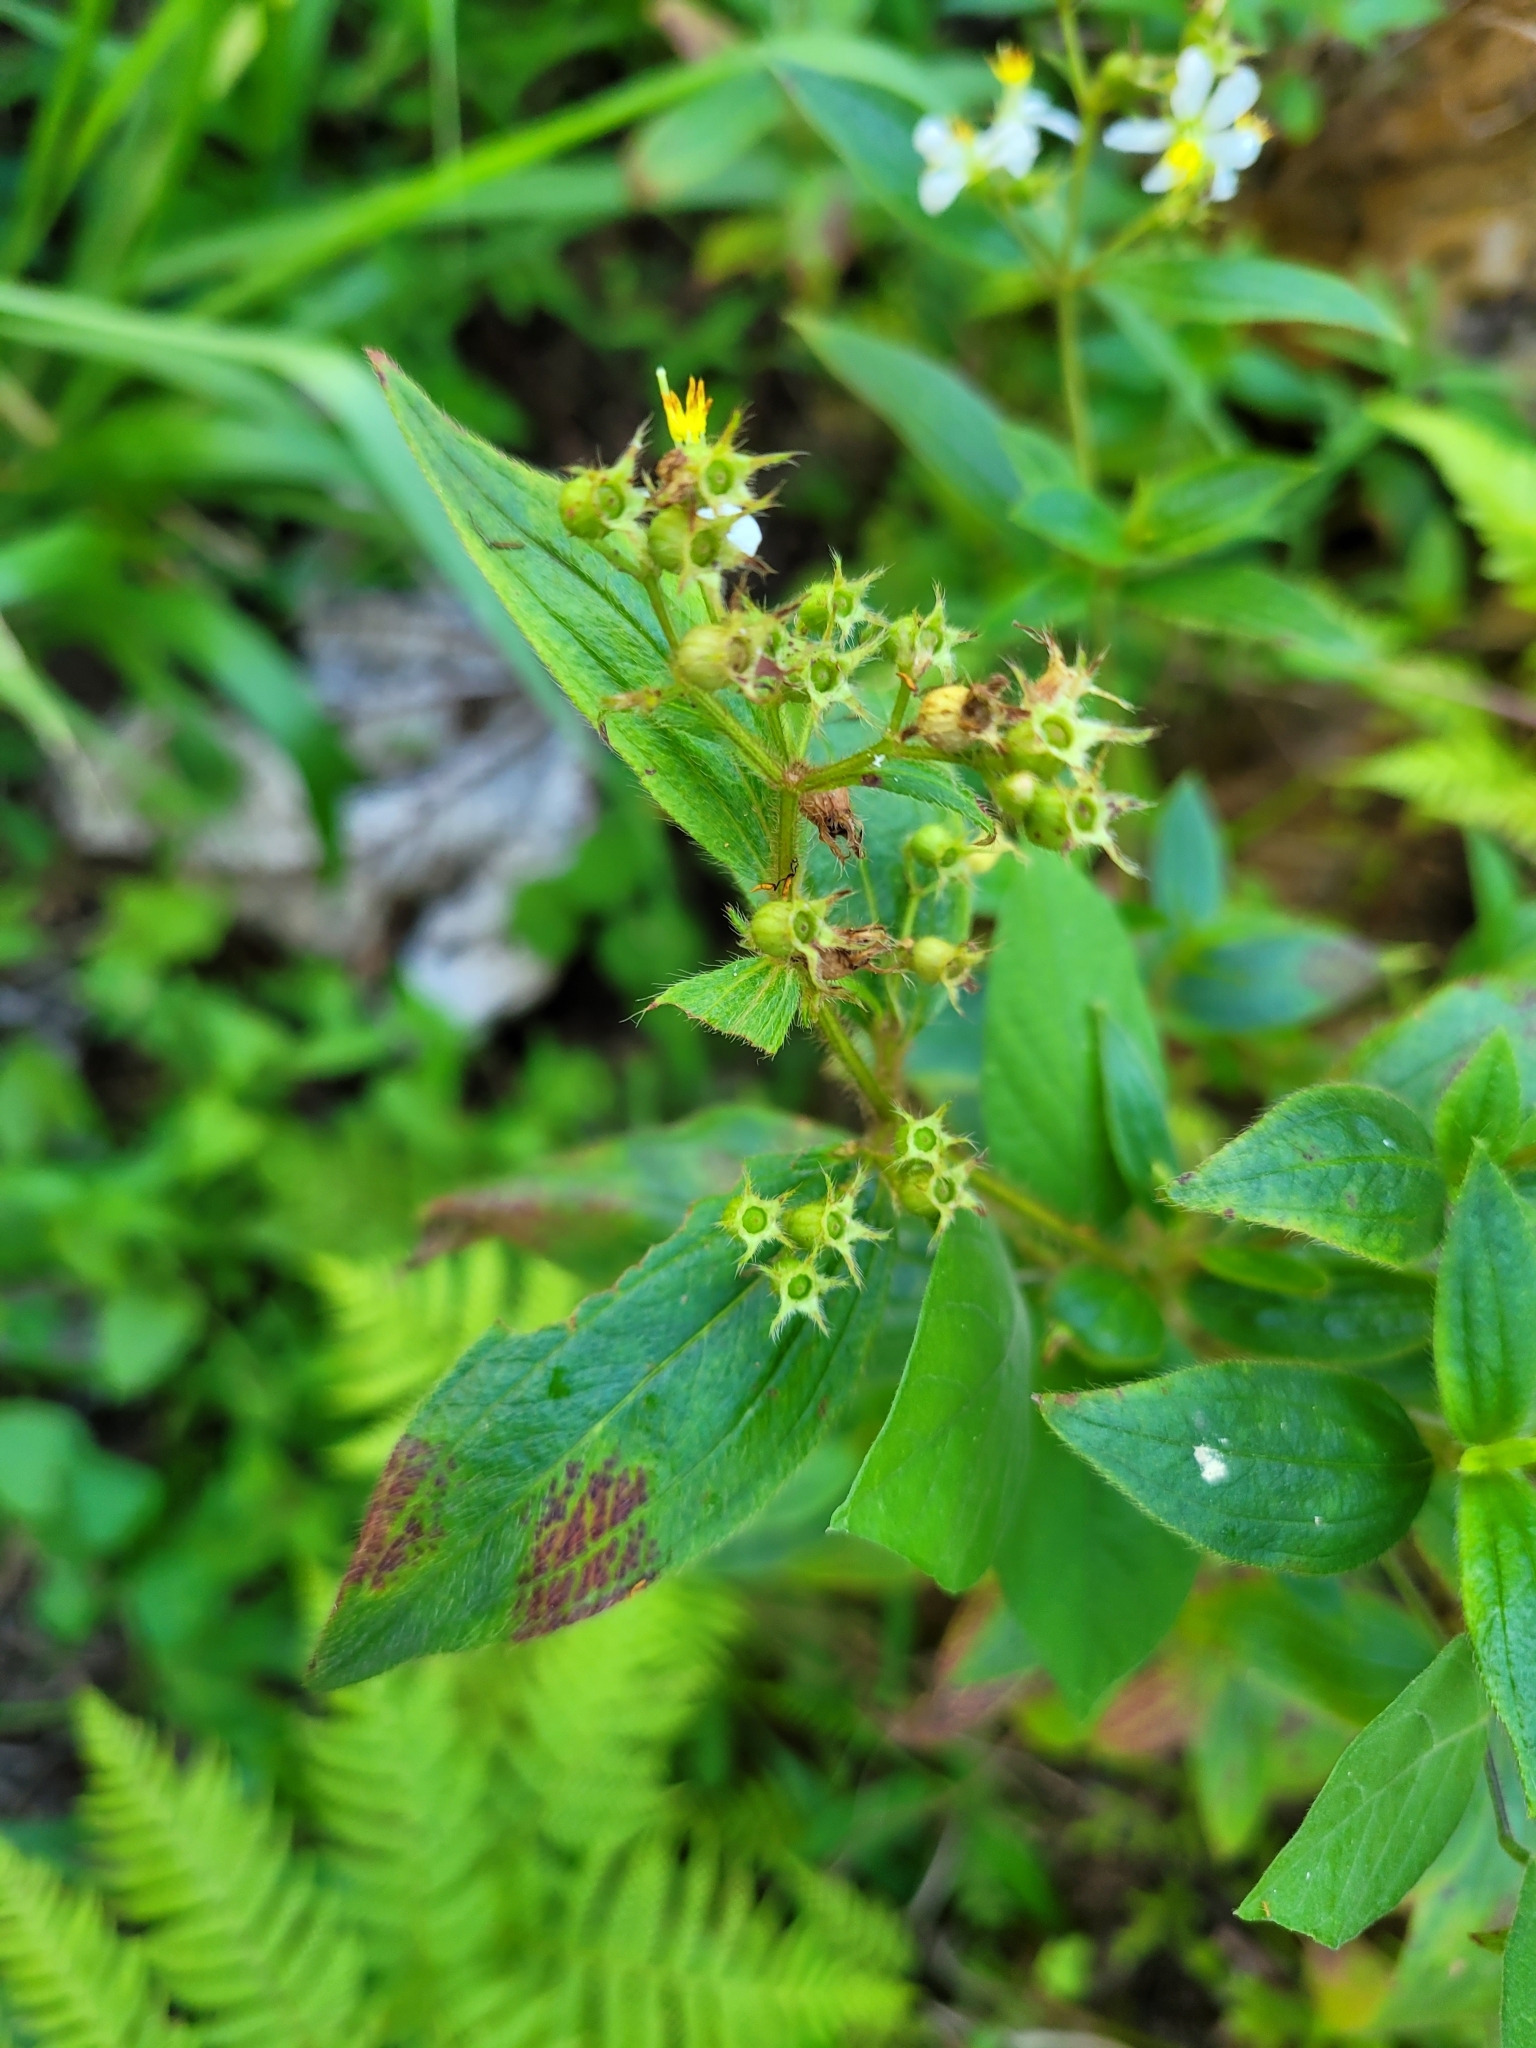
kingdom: Plantae
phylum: Tracheophyta
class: Magnoliopsida
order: Myrtales
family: Melastomataceae
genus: Chaetogastra
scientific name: Chaetogastra longifolia
